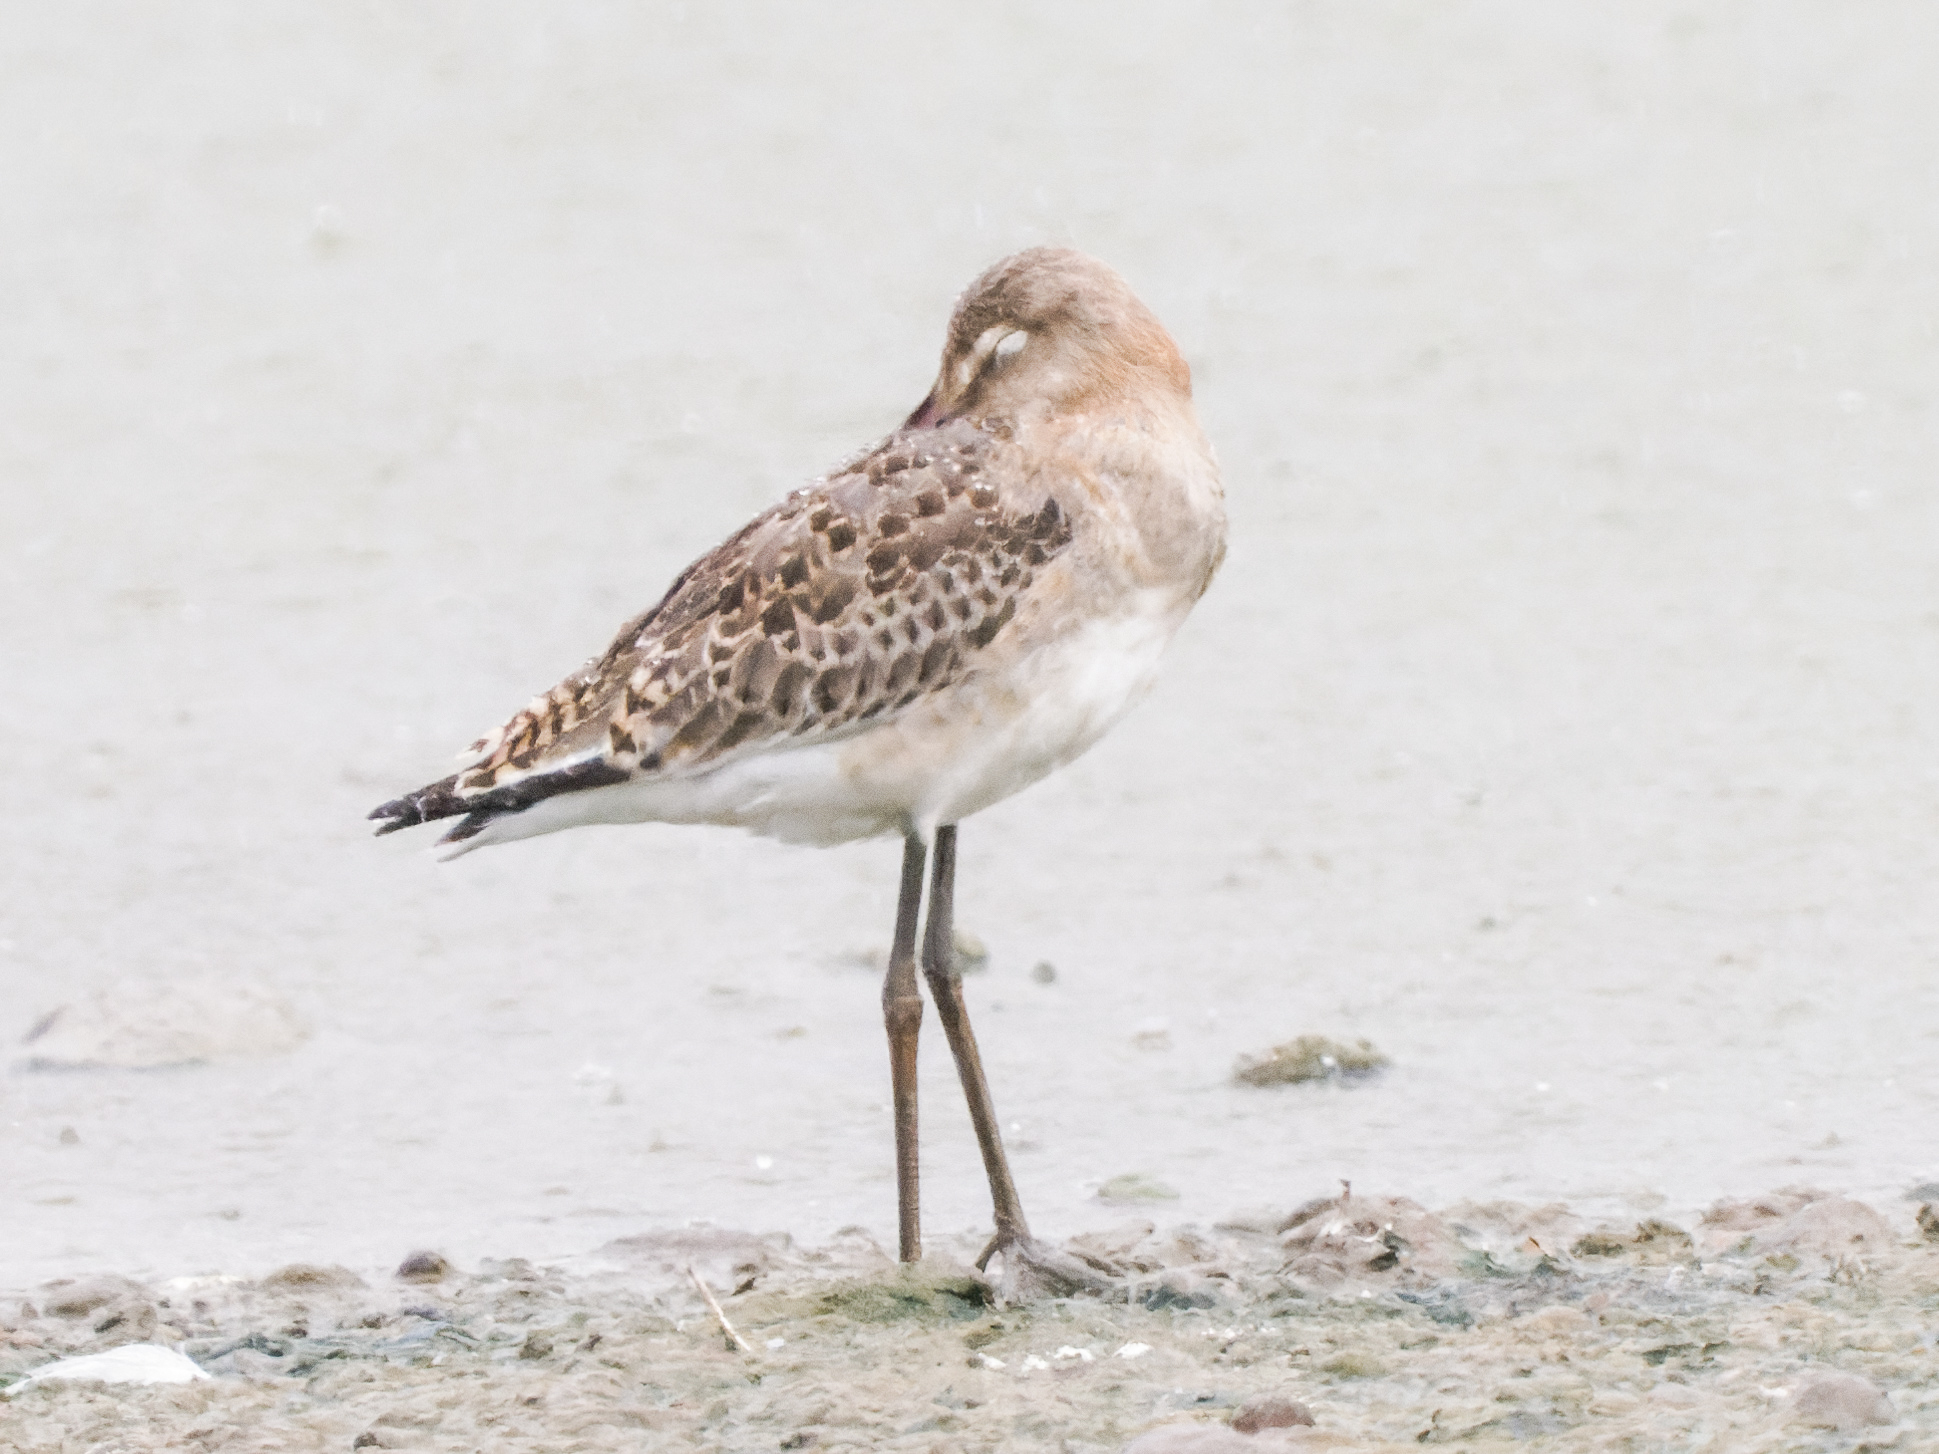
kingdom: Animalia
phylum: Chordata
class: Aves
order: Charadriiformes
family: Scolopacidae
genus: Limosa
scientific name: Limosa limosa
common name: Black-tailed godwit
